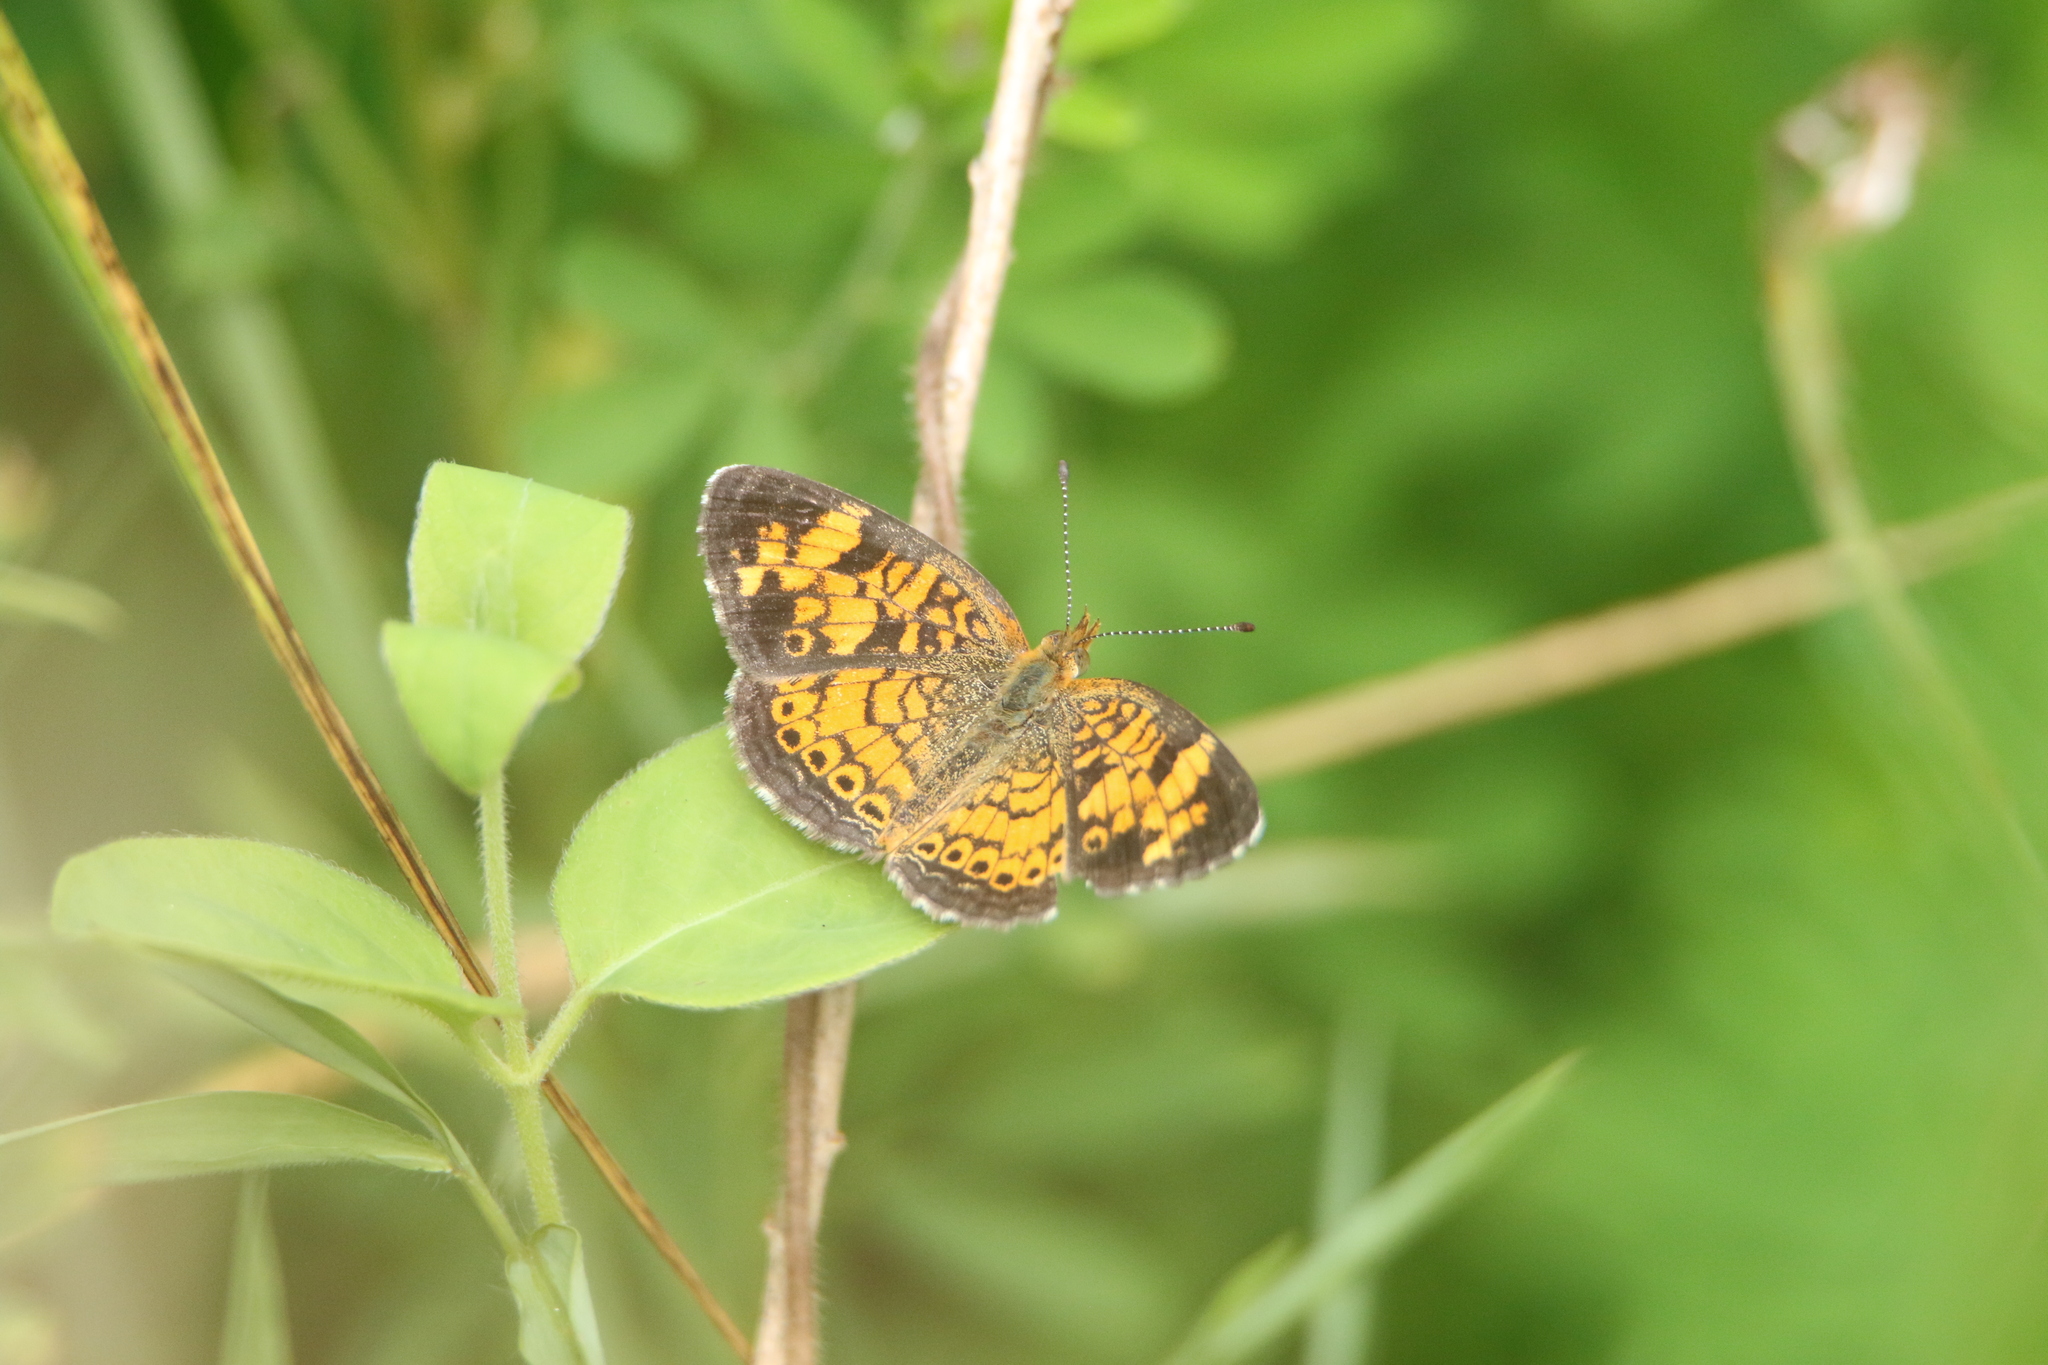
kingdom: Animalia
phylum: Arthropoda
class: Insecta
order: Lepidoptera
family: Nymphalidae
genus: Phyciodes
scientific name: Phyciodes tharos
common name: Pearl crescent
